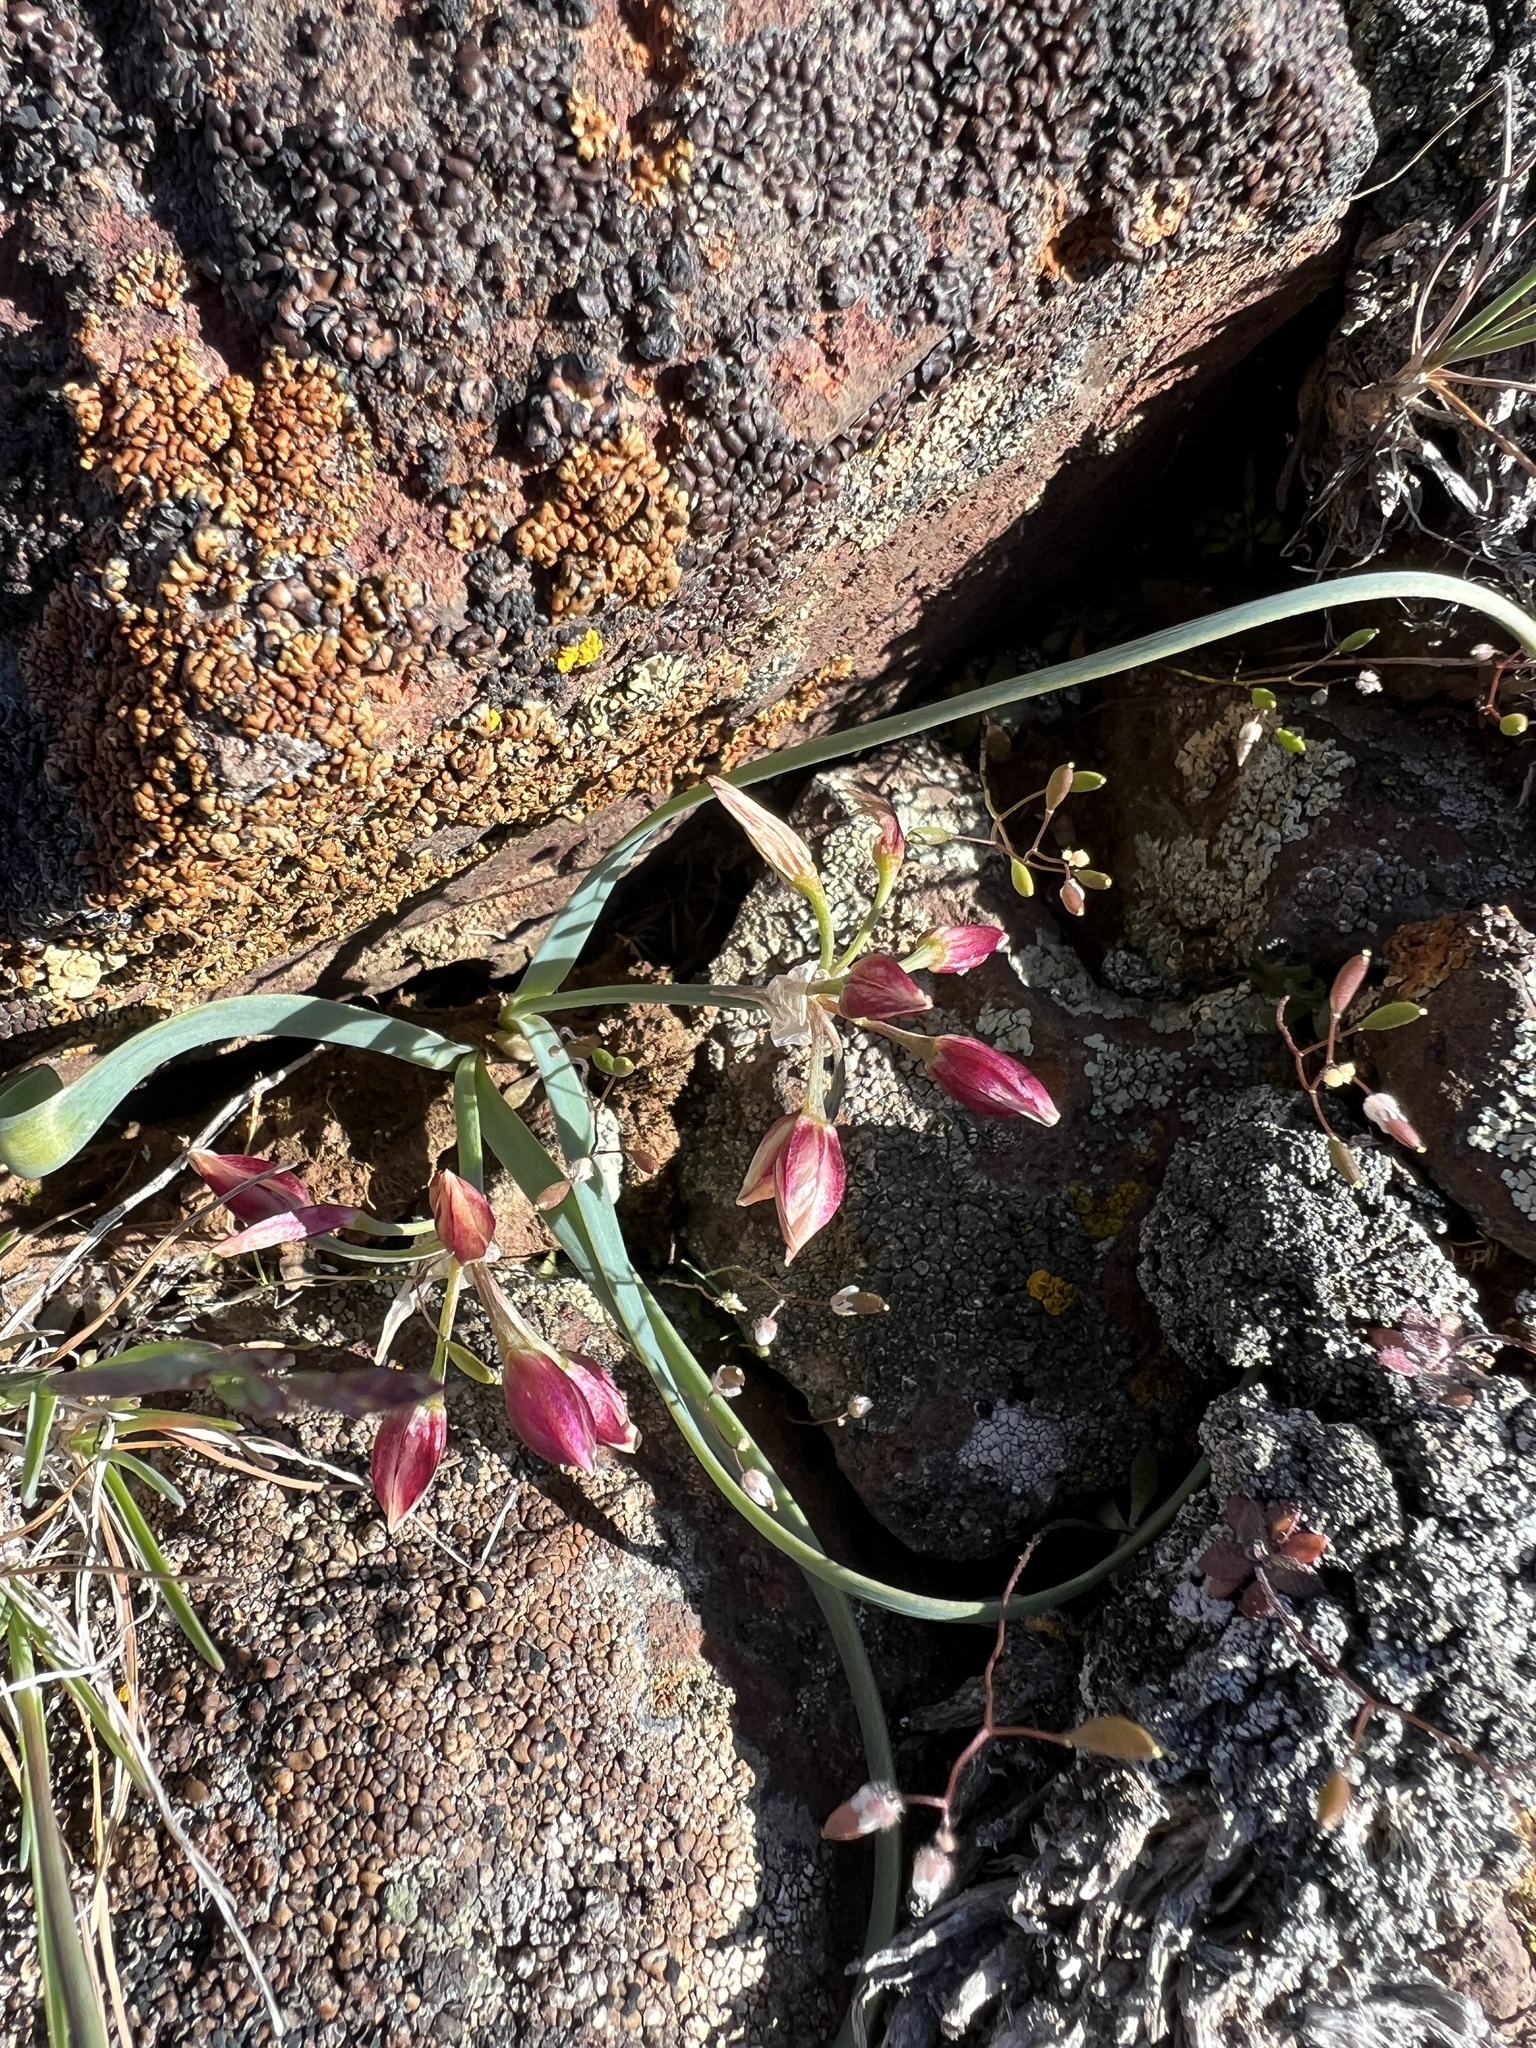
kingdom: Plantae
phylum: Tracheophyta
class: Liliopsida
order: Asparagales
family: Amaryllidaceae
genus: Allium
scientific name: Allium scilloides
